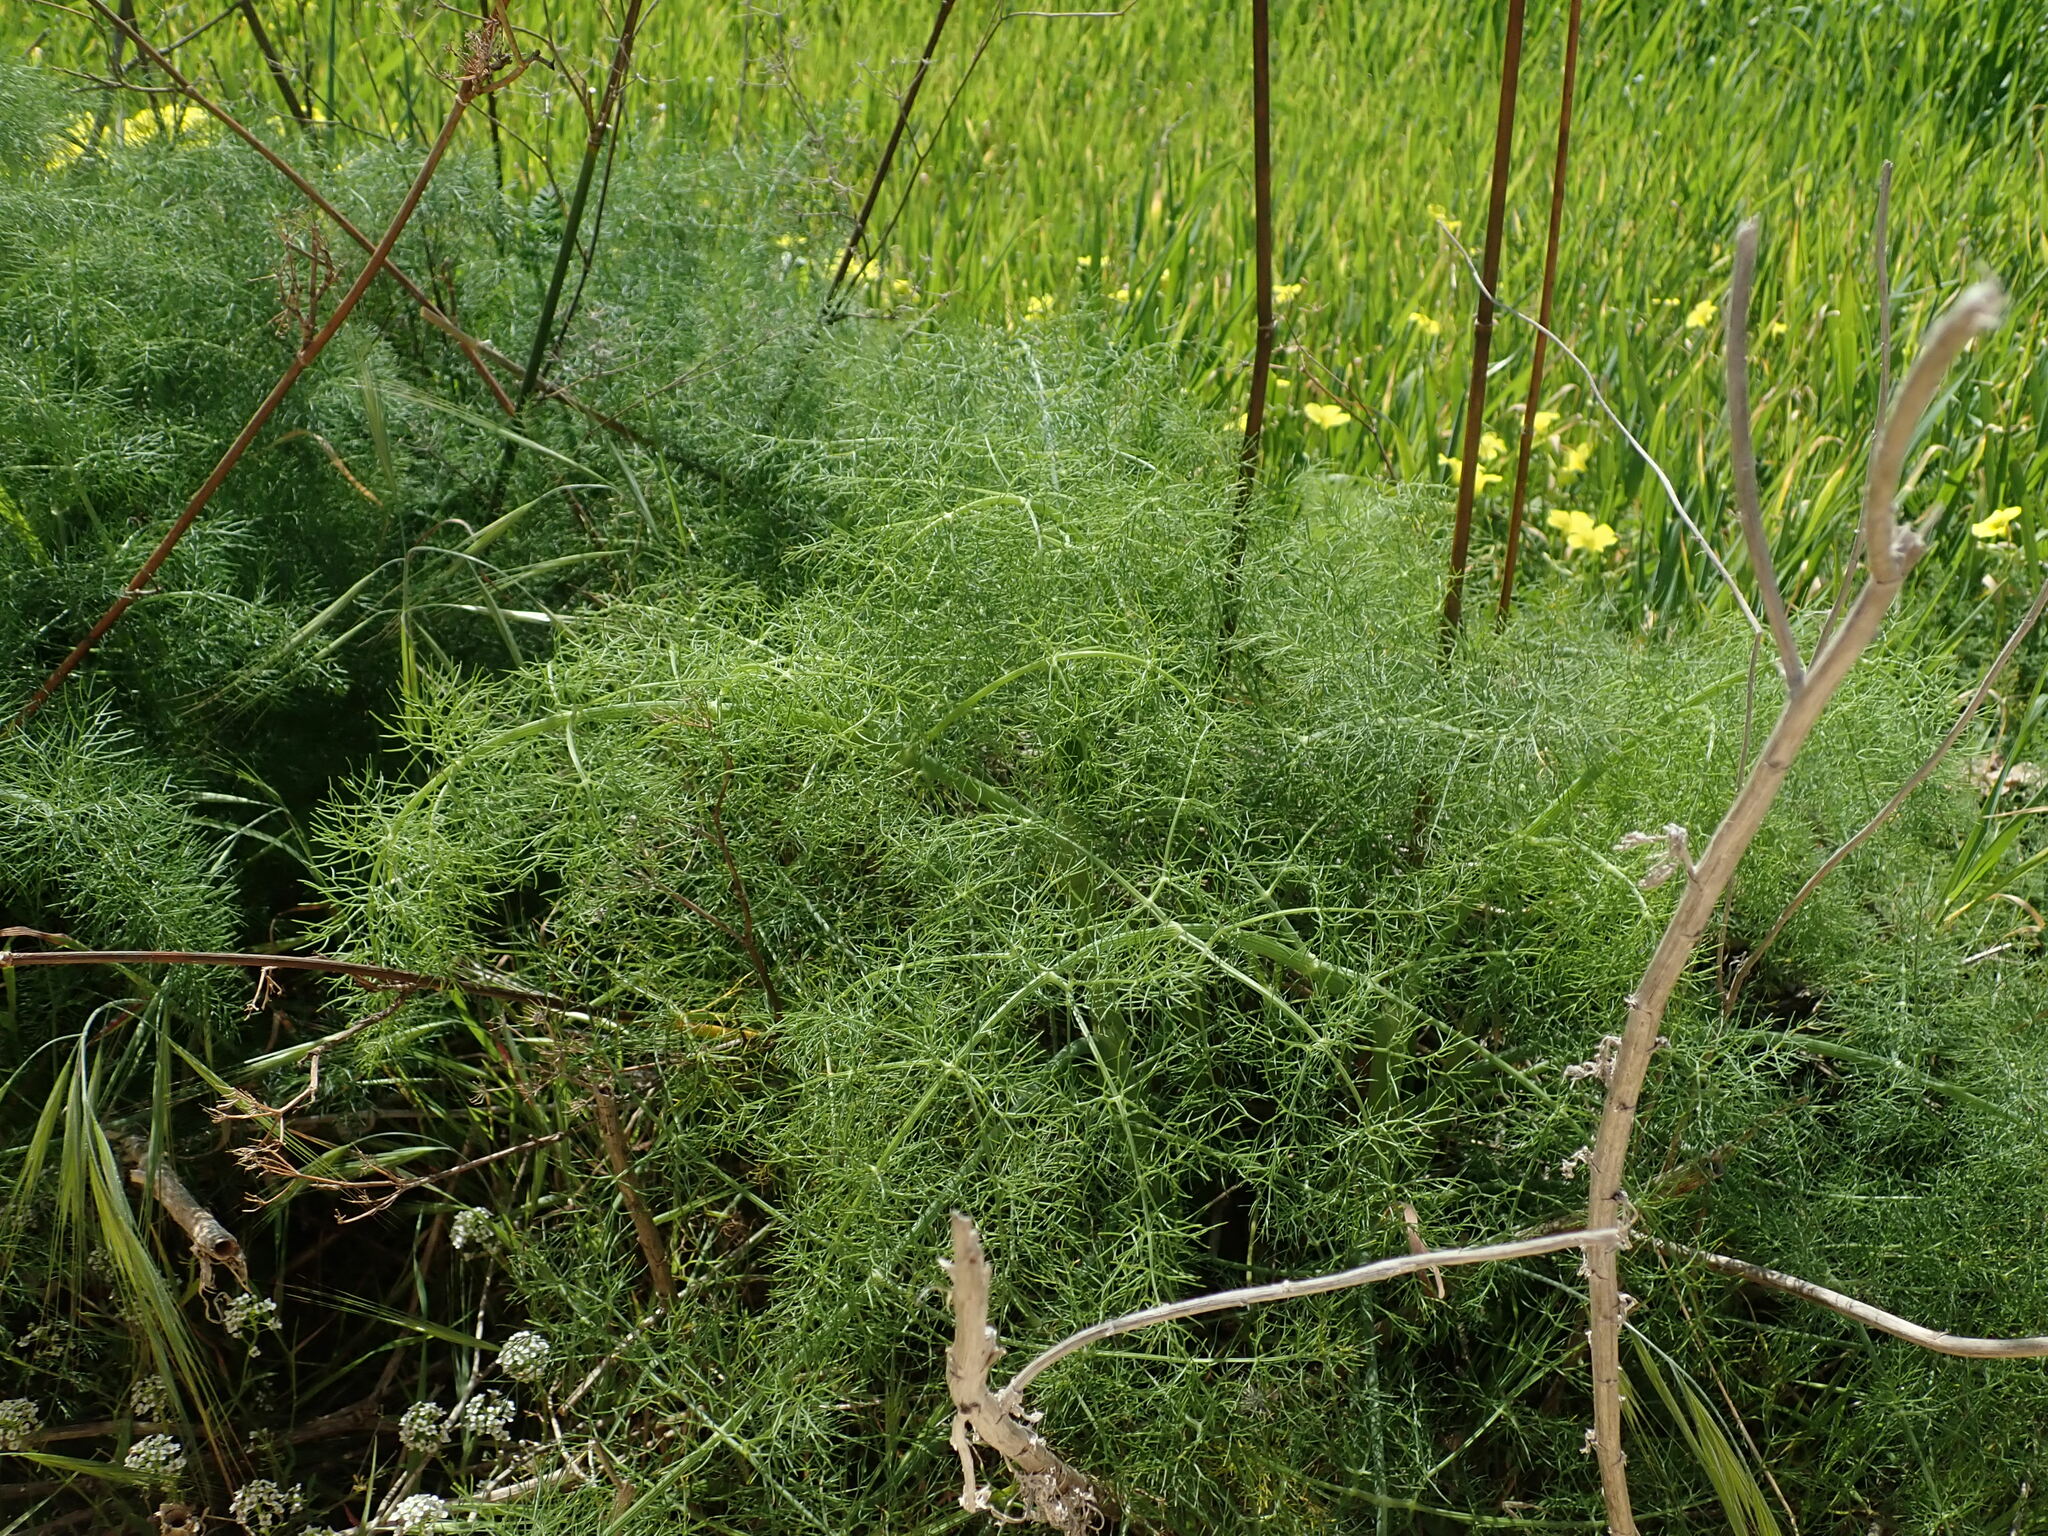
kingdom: Plantae
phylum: Tracheophyta
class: Magnoliopsida
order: Apiales
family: Apiaceae
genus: Foeniculum
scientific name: Foeniculum vulgare
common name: Fennel
